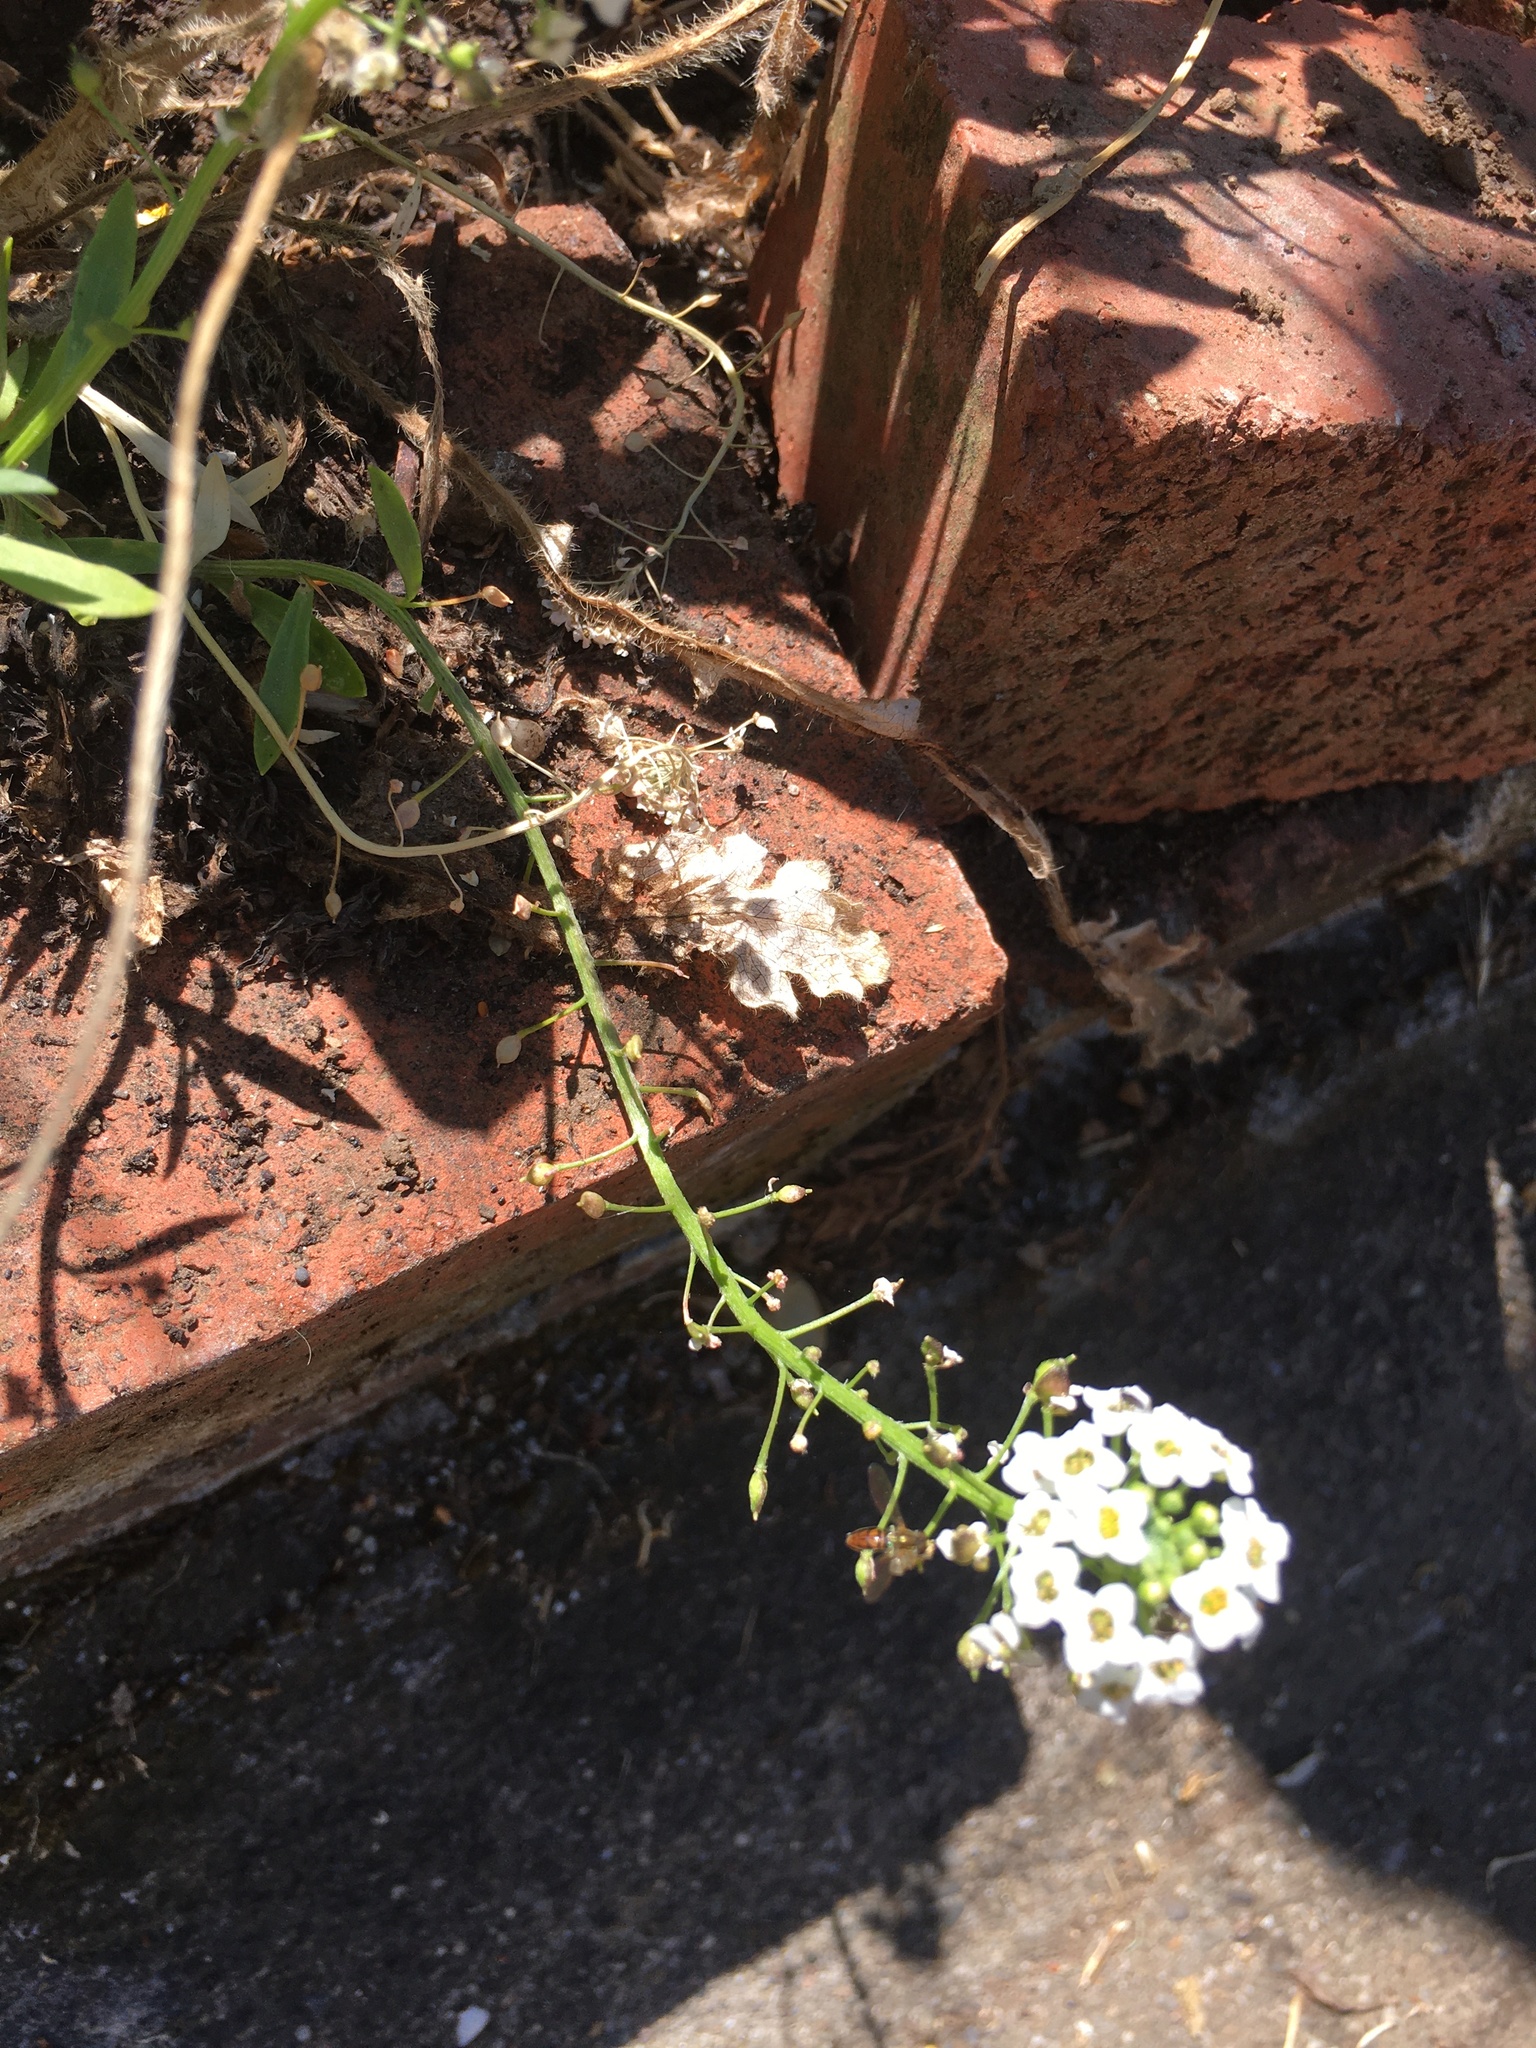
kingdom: Animalia
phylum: Arthropoda
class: Insecta
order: Diptera
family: Syrphidae
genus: Toxomerus
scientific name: Toxomerus marginatus
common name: Syrphid fly
